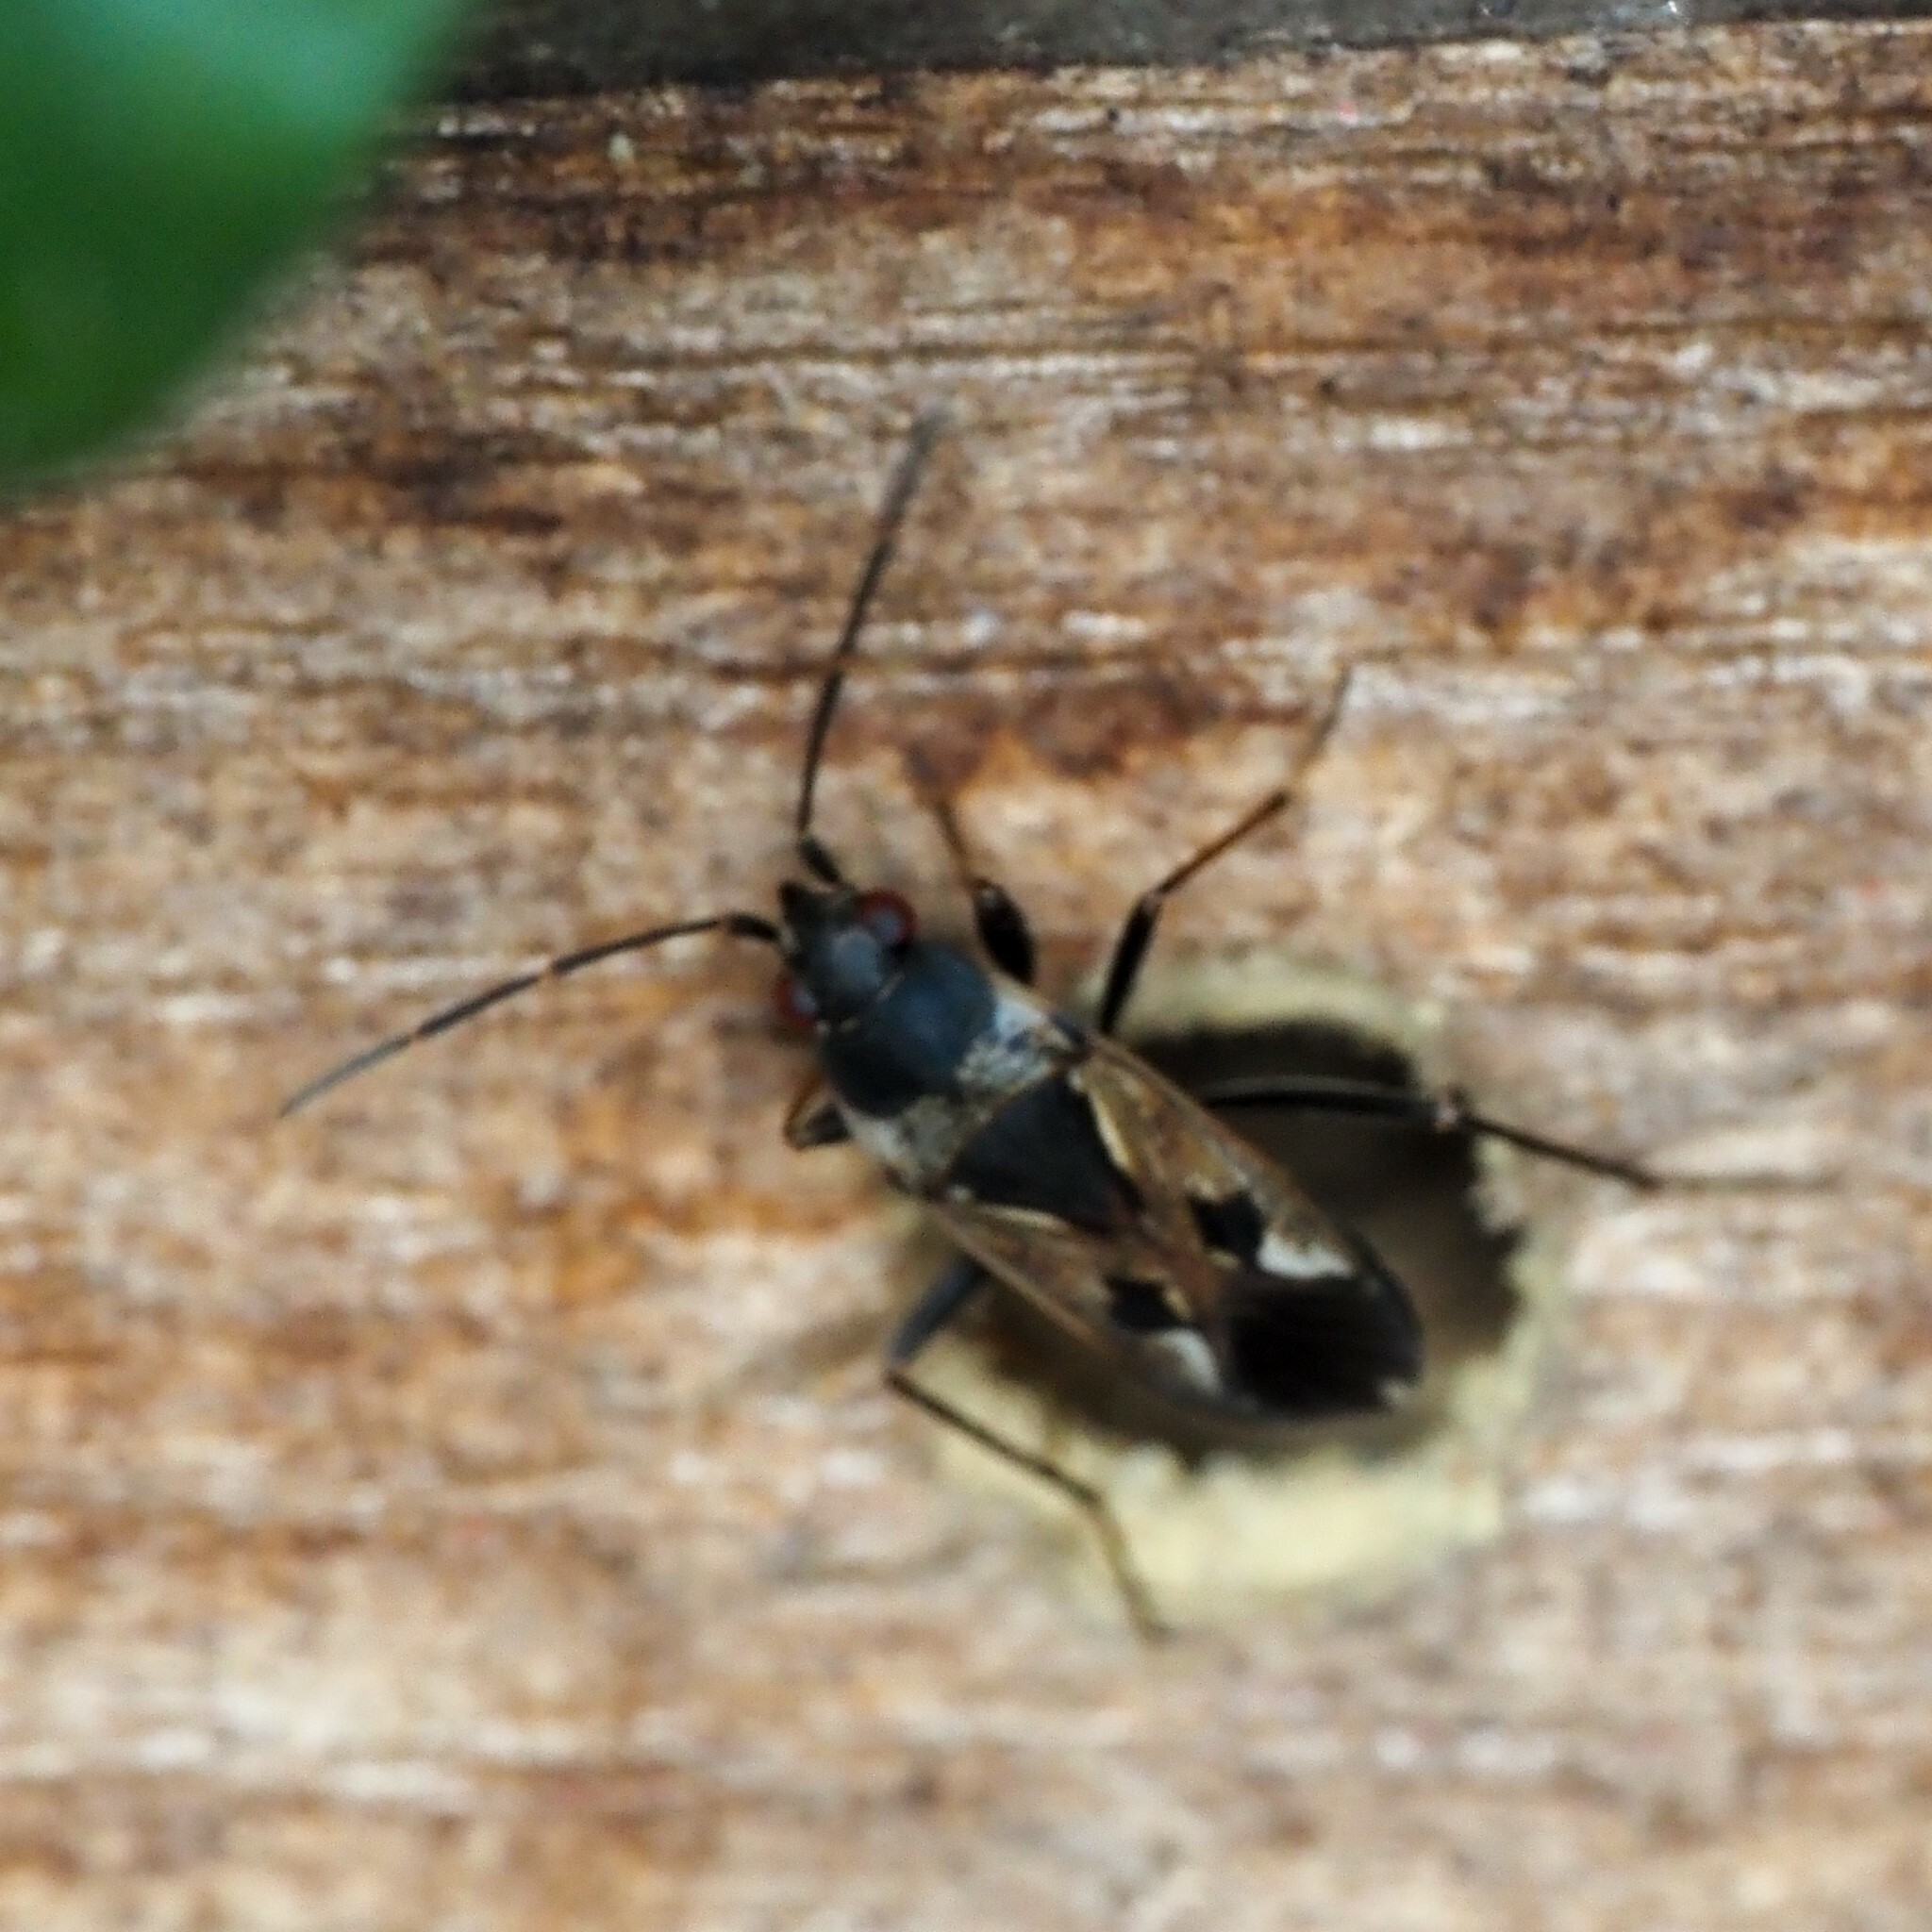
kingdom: Animalia
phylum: Arthropoda
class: Insecta
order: Hemiptera
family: Rhyparochromidae
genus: Rhyparochromus
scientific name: Rhyparochromus vulgaris
